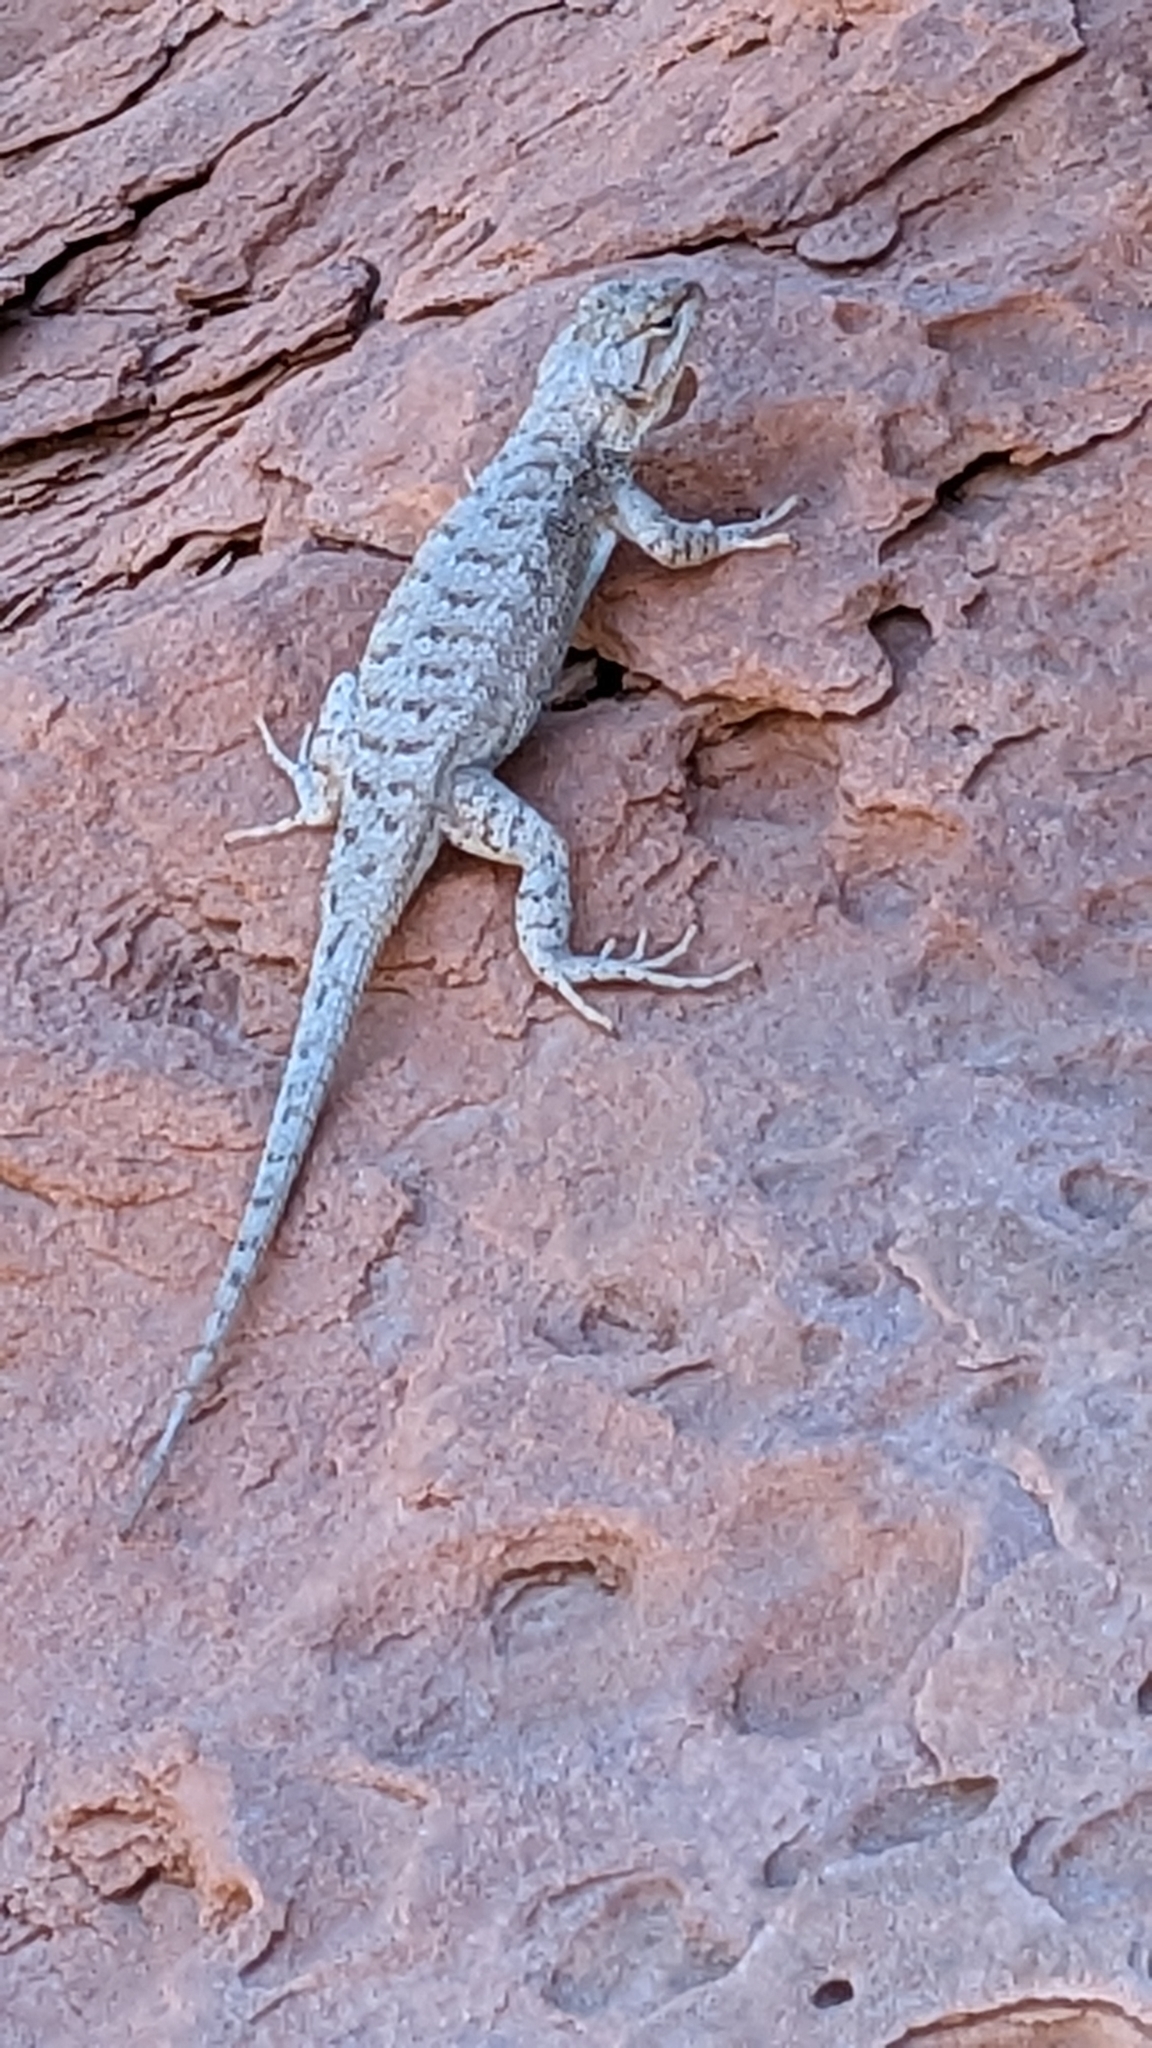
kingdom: Animalia
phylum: Chordata
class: Squamata
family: Phrynosomatidae
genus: Sceloporus
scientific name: Sceloporus tristichus
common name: Plateau fence lizard
